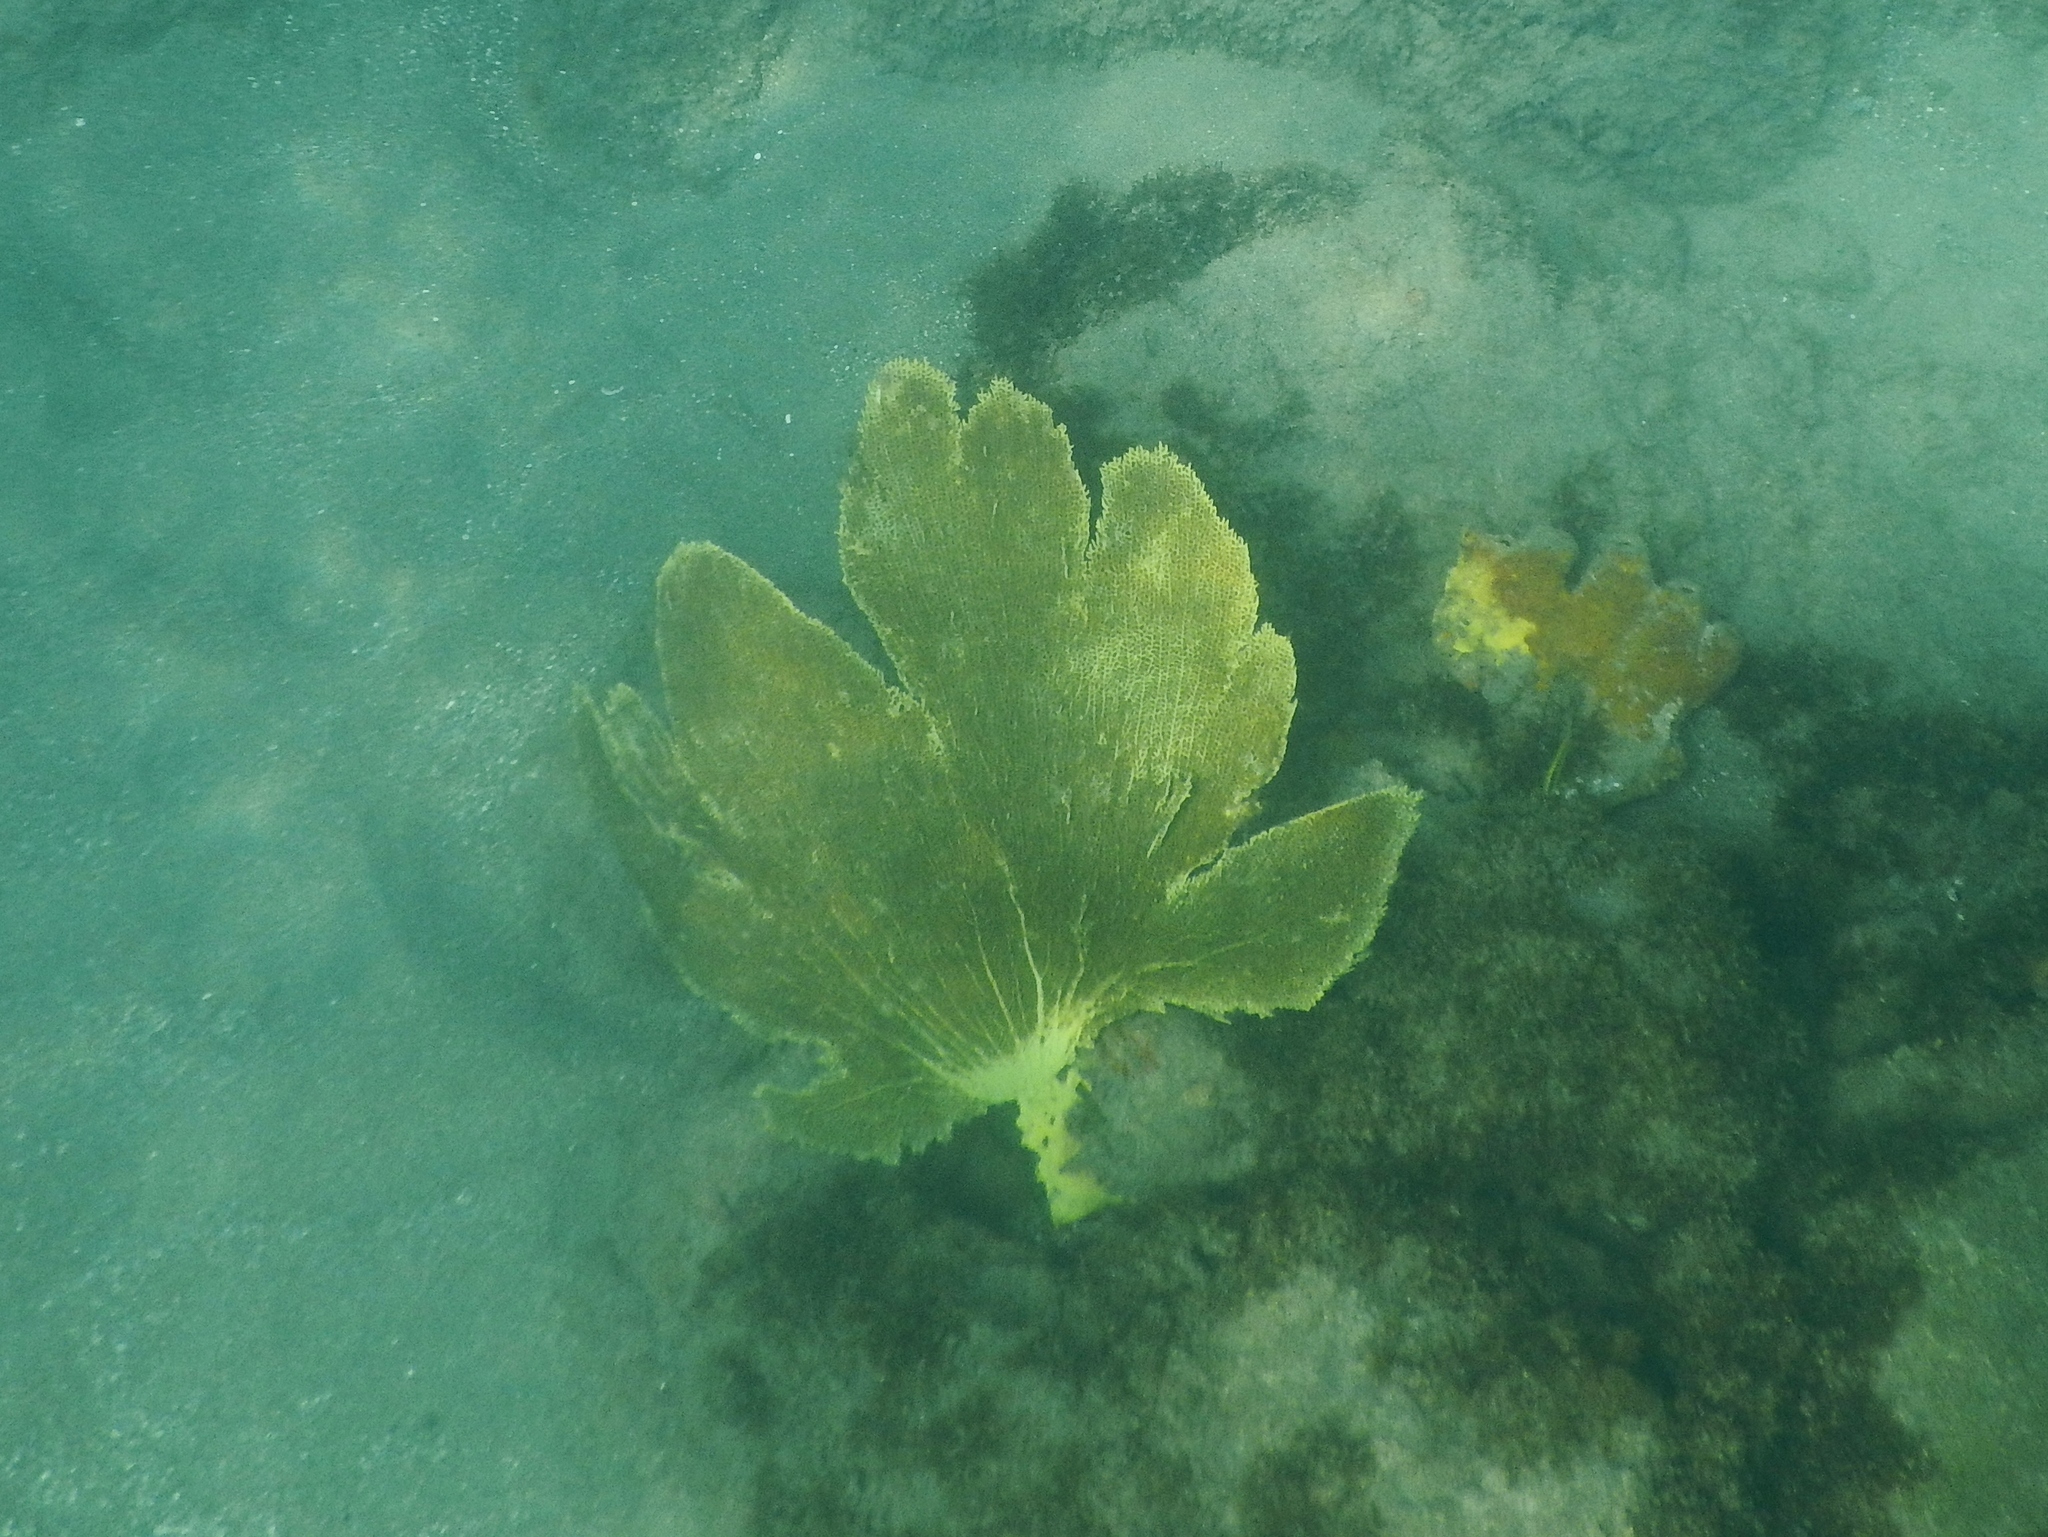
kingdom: Animalia
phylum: Cnidaria
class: Anthozoa
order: Malacalcyonacea
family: Gorgoniidae
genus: Gorgonia
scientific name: Gorgonia ventalina
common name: Common sea fan
